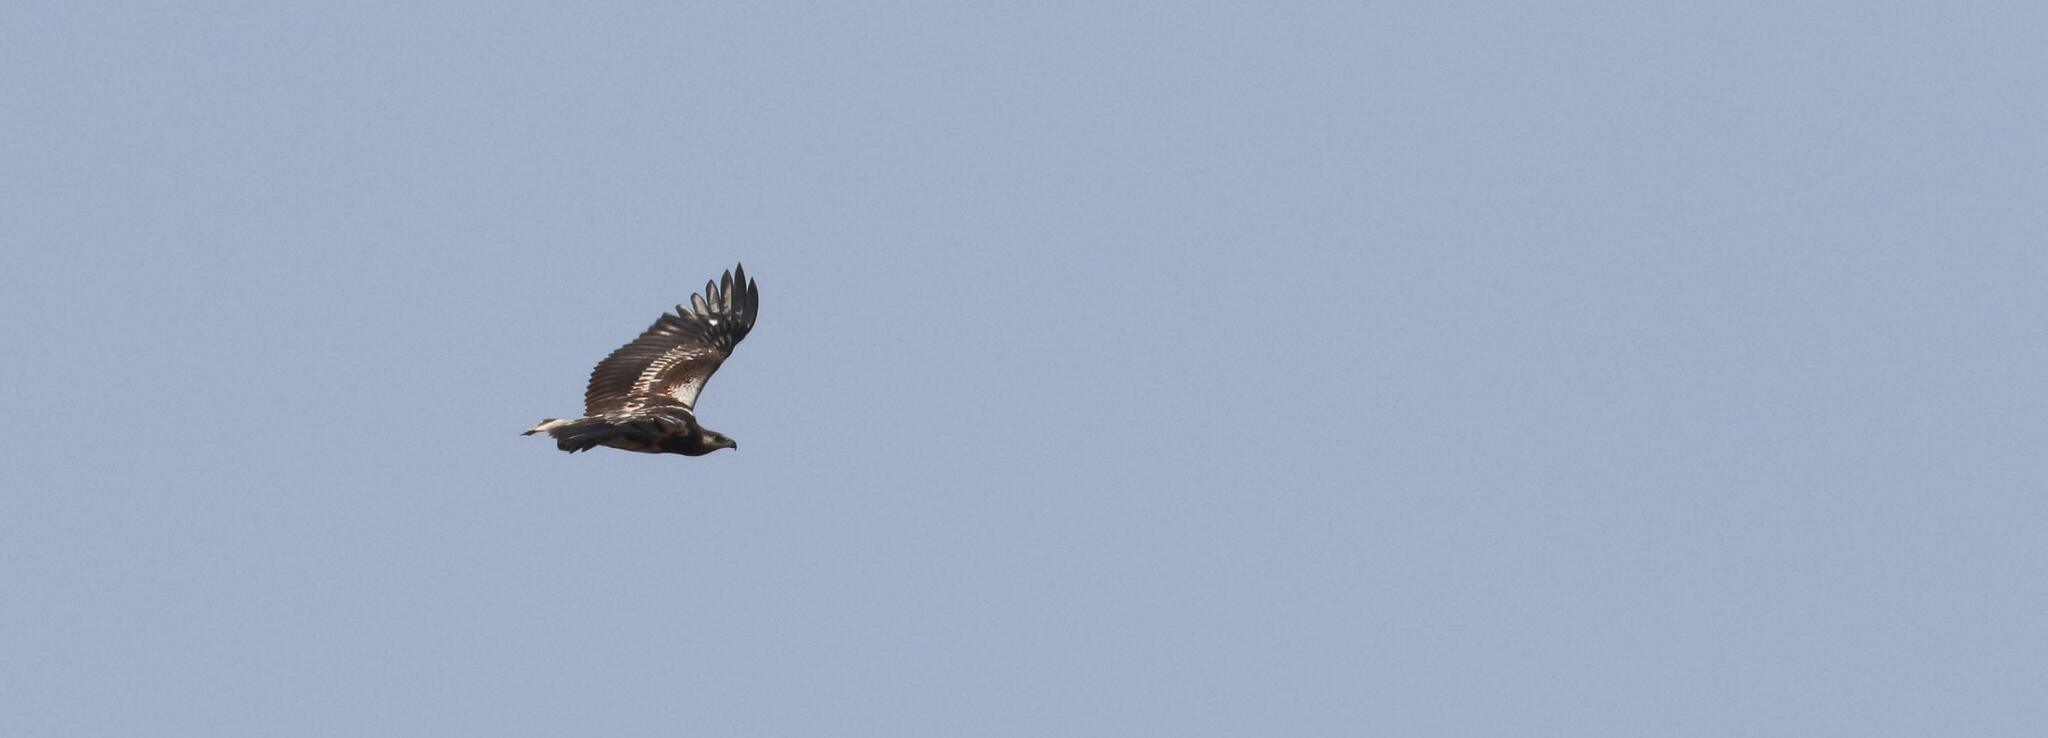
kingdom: Animalia
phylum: Chordata
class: Aves
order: Accipitriformes
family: Accipitridae
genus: Haliaeetus
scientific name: Haliaeetus vocifer
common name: African fish eagle
